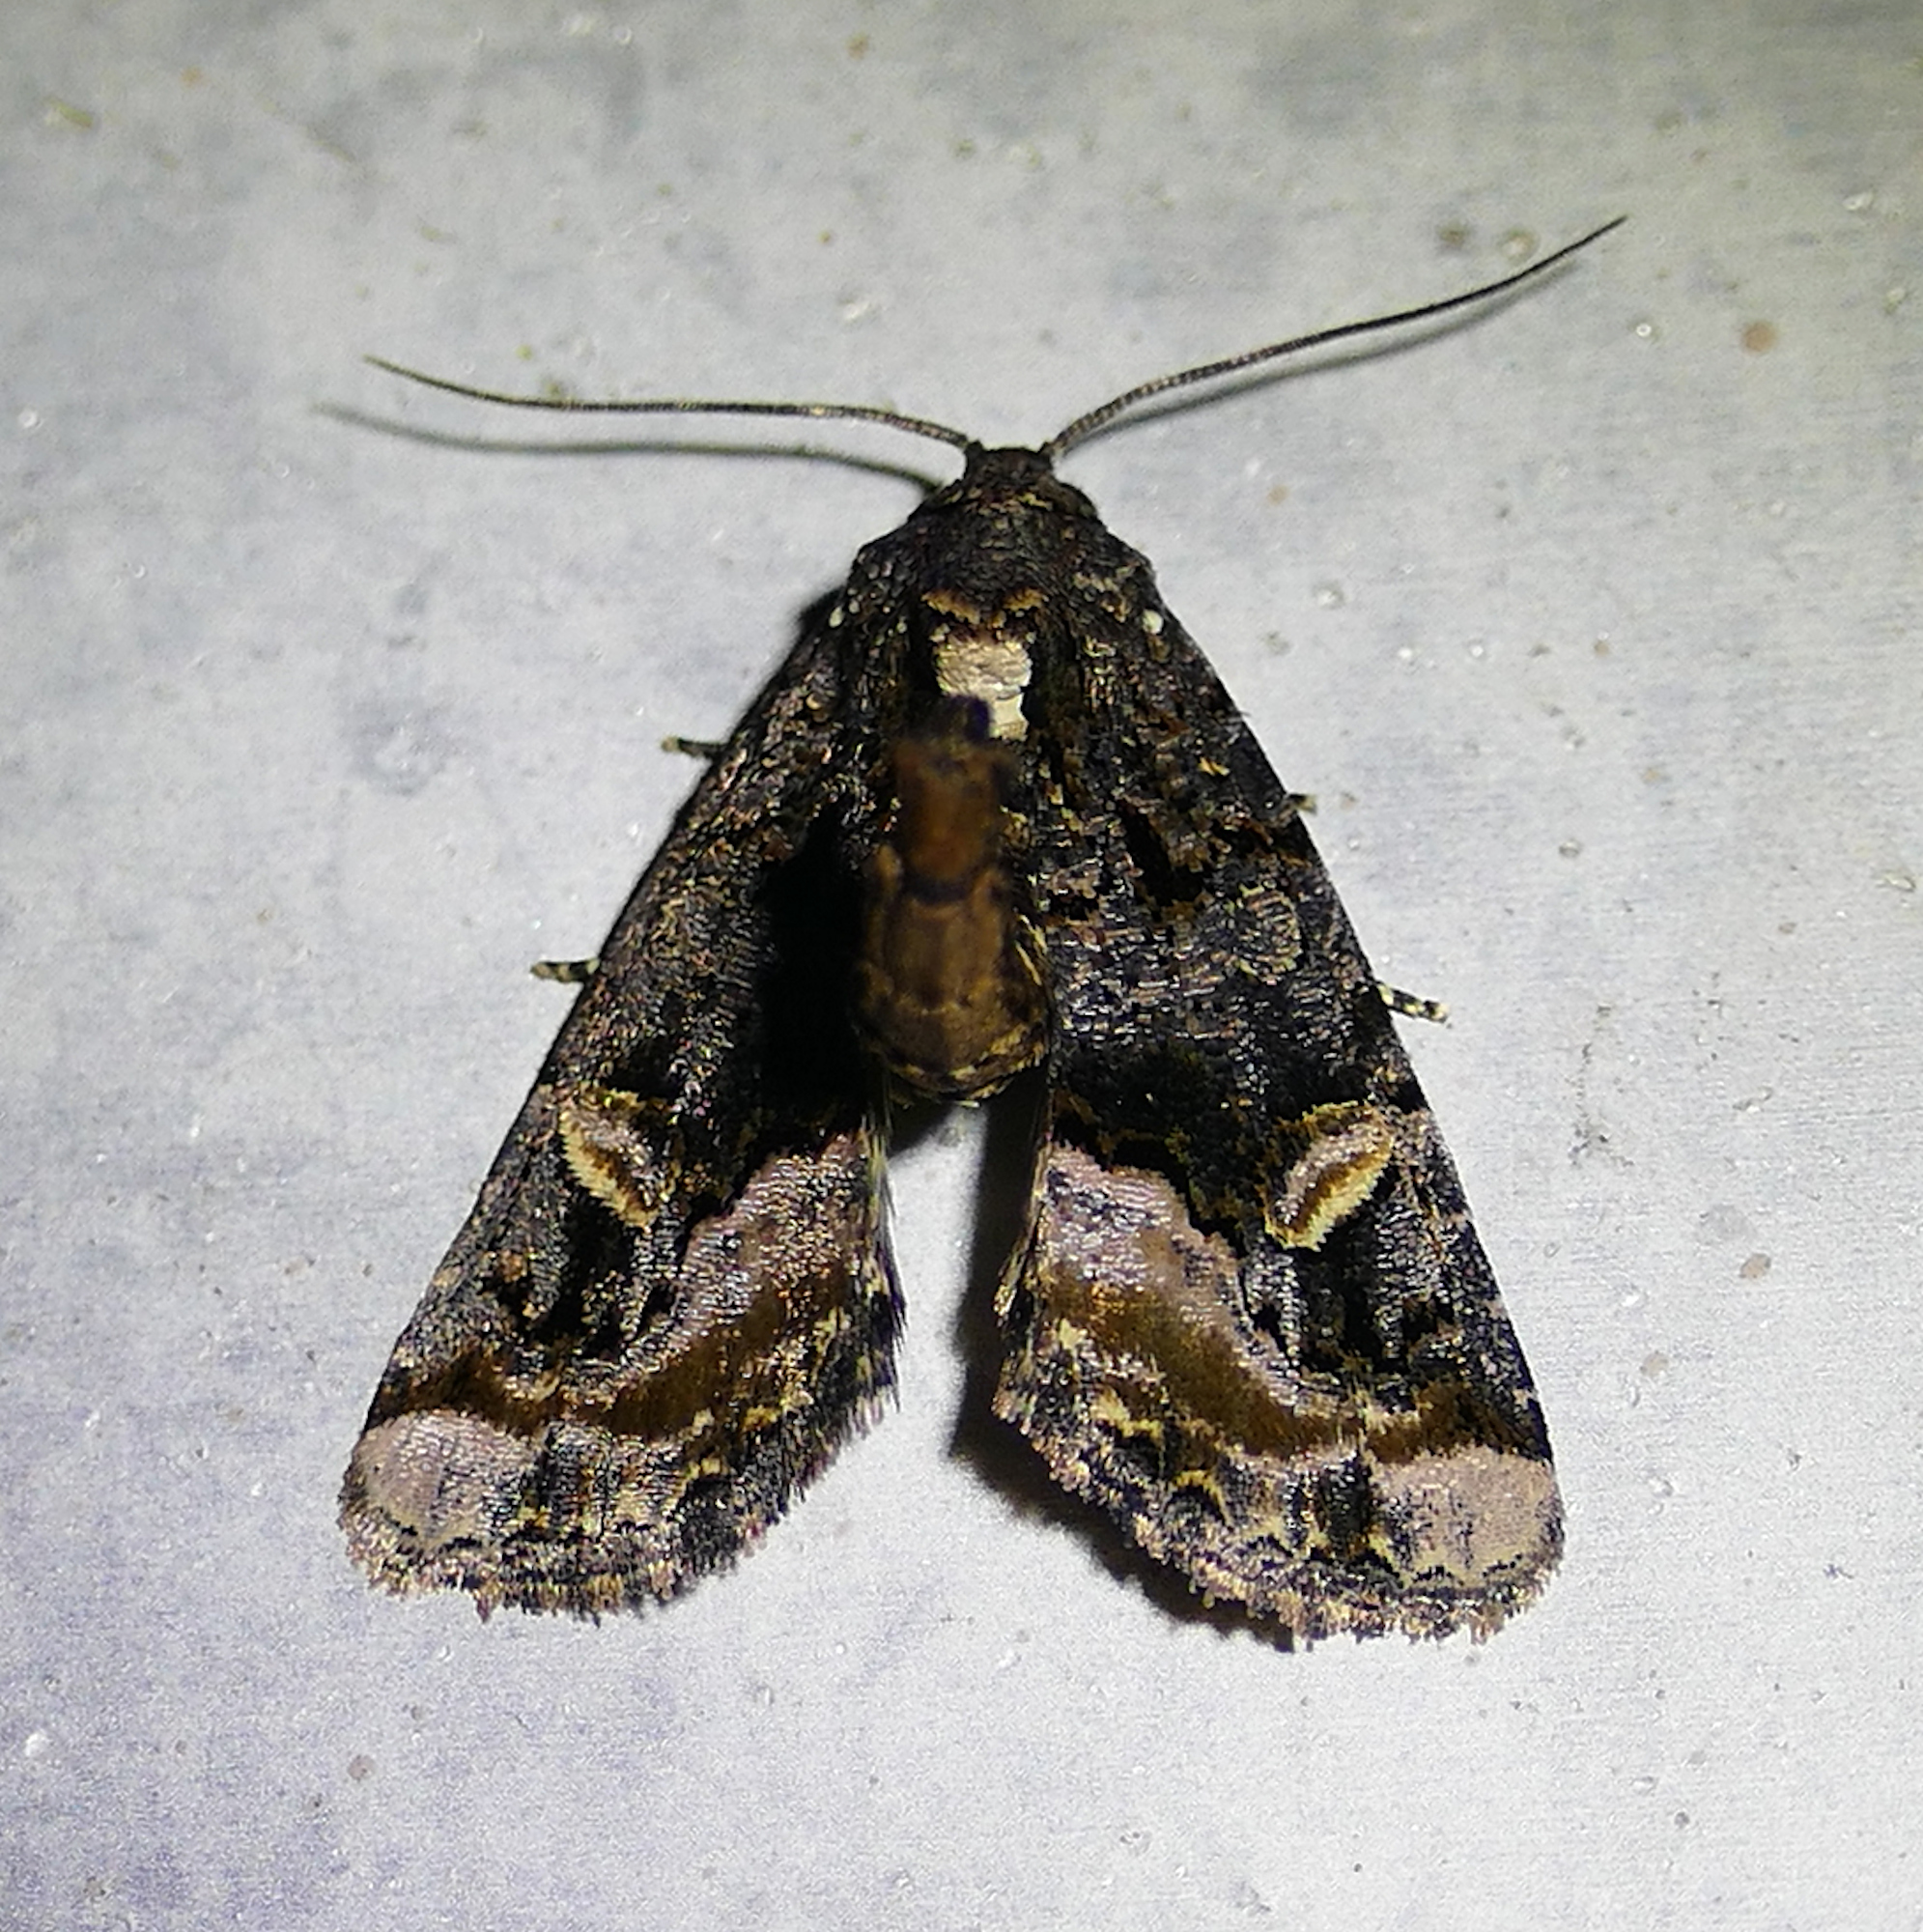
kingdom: Animalia
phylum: Arthropoda
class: Insecta
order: Lepidoptera
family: Noctuidae
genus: Homophoberia
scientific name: Homophoberia apicosa
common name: Black wedge-spot
